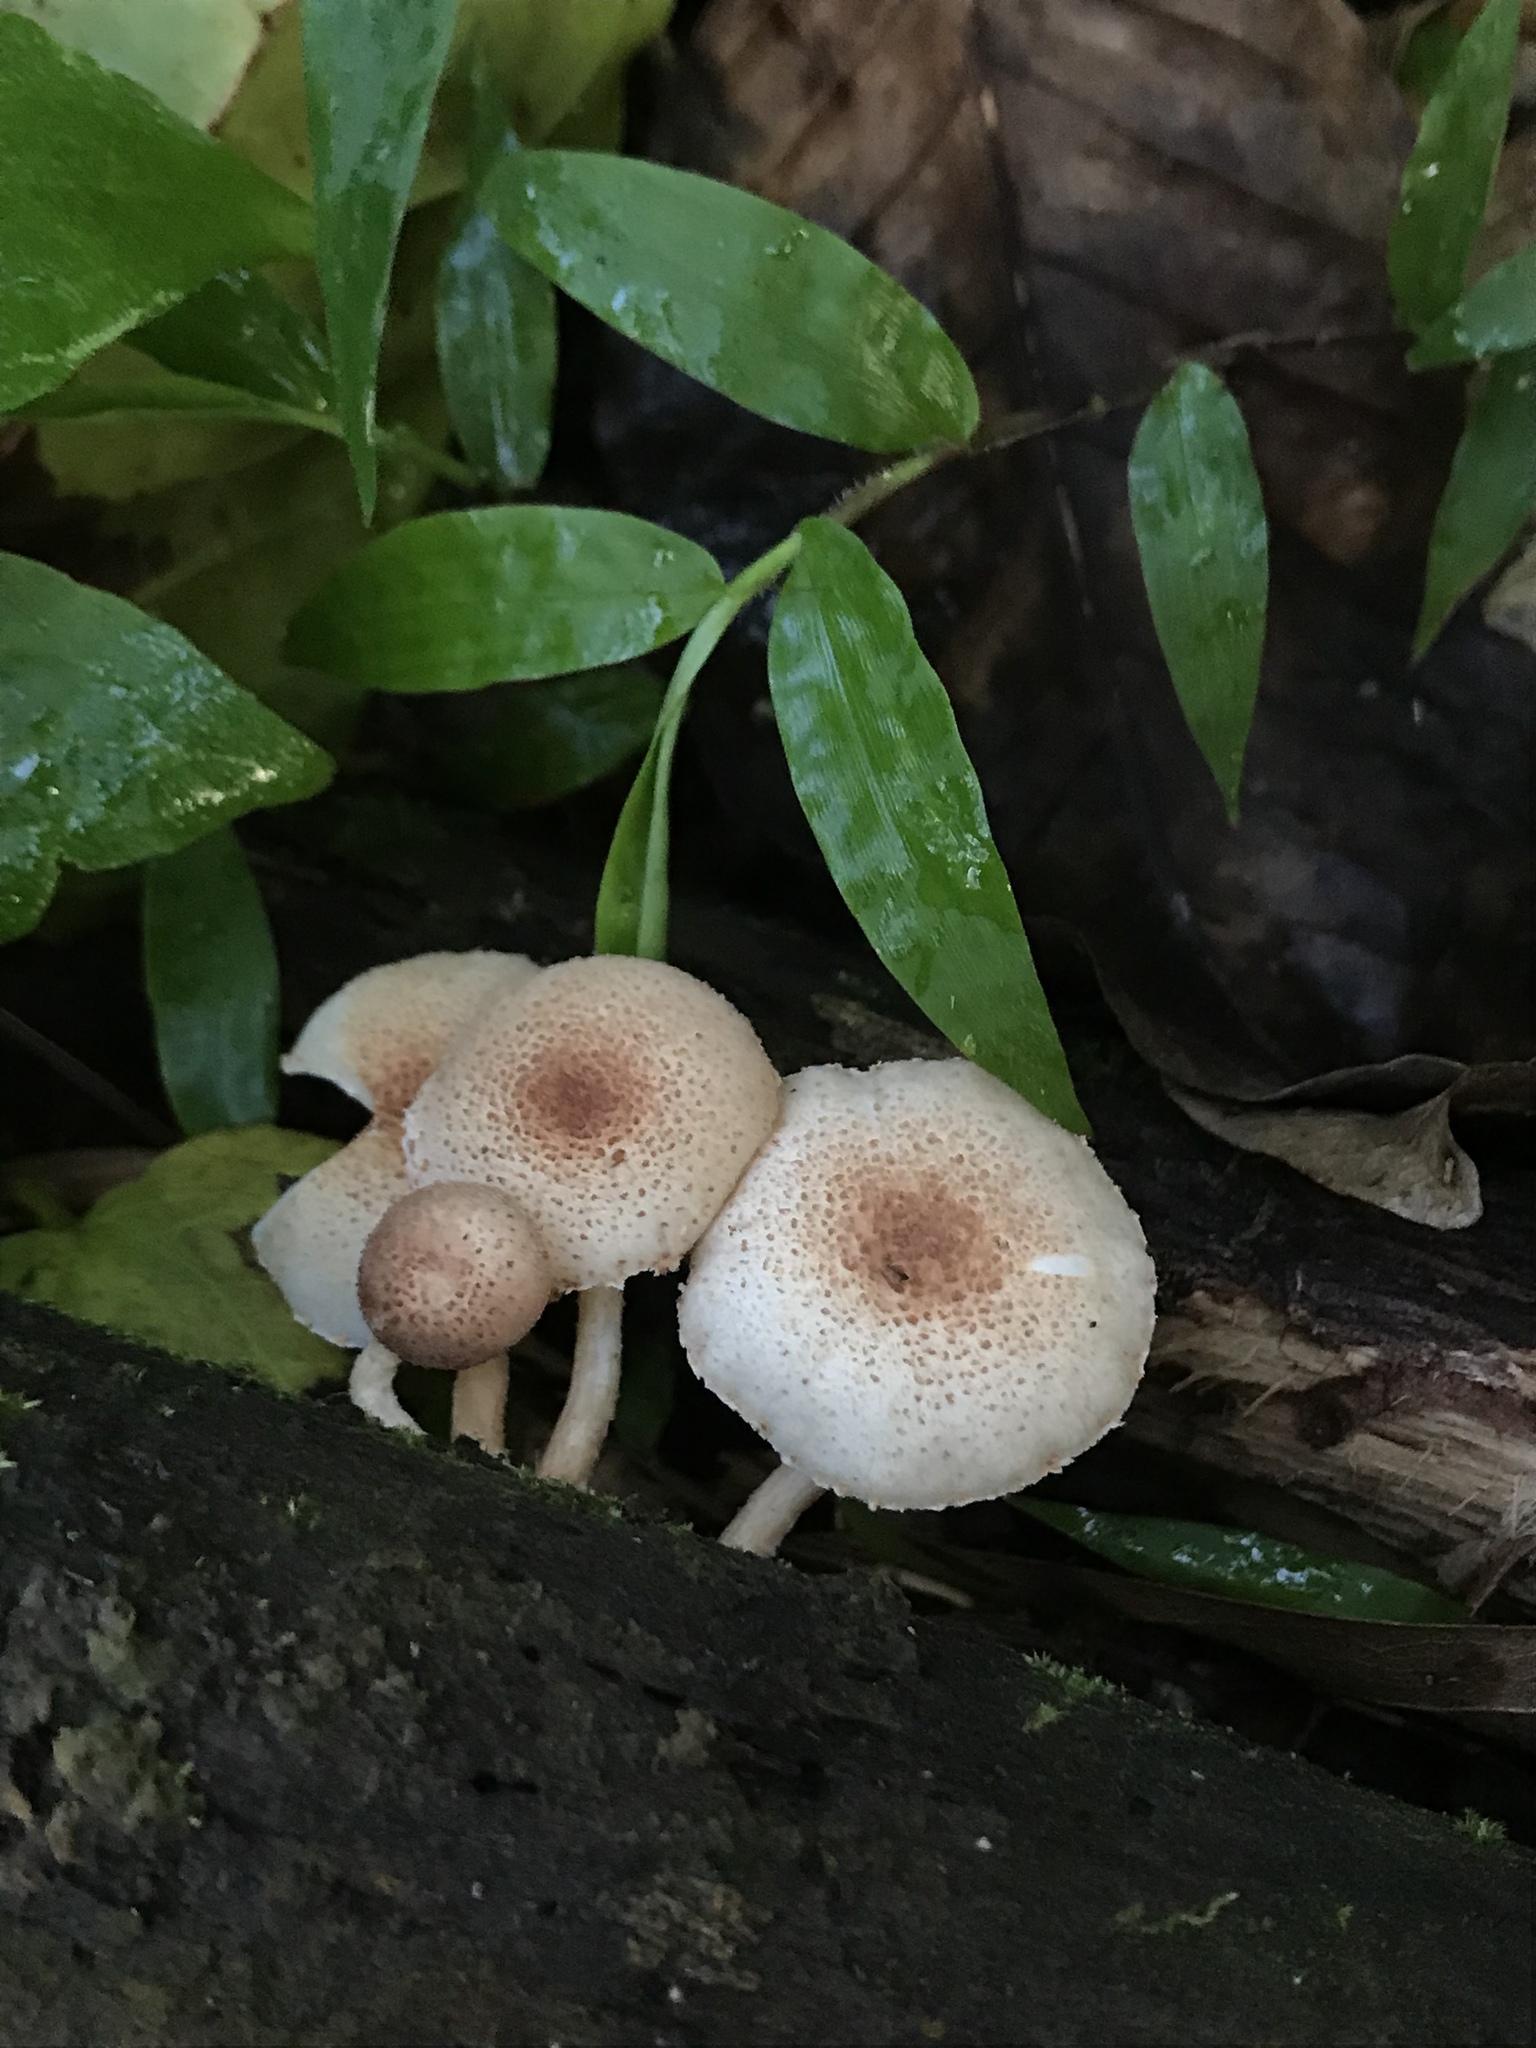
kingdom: Fungi
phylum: Basidiomycota
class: Agaricomycetes
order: Agaricales
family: Agaricaceae
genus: Ripartitella
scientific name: Ripartitella brasiliensis
